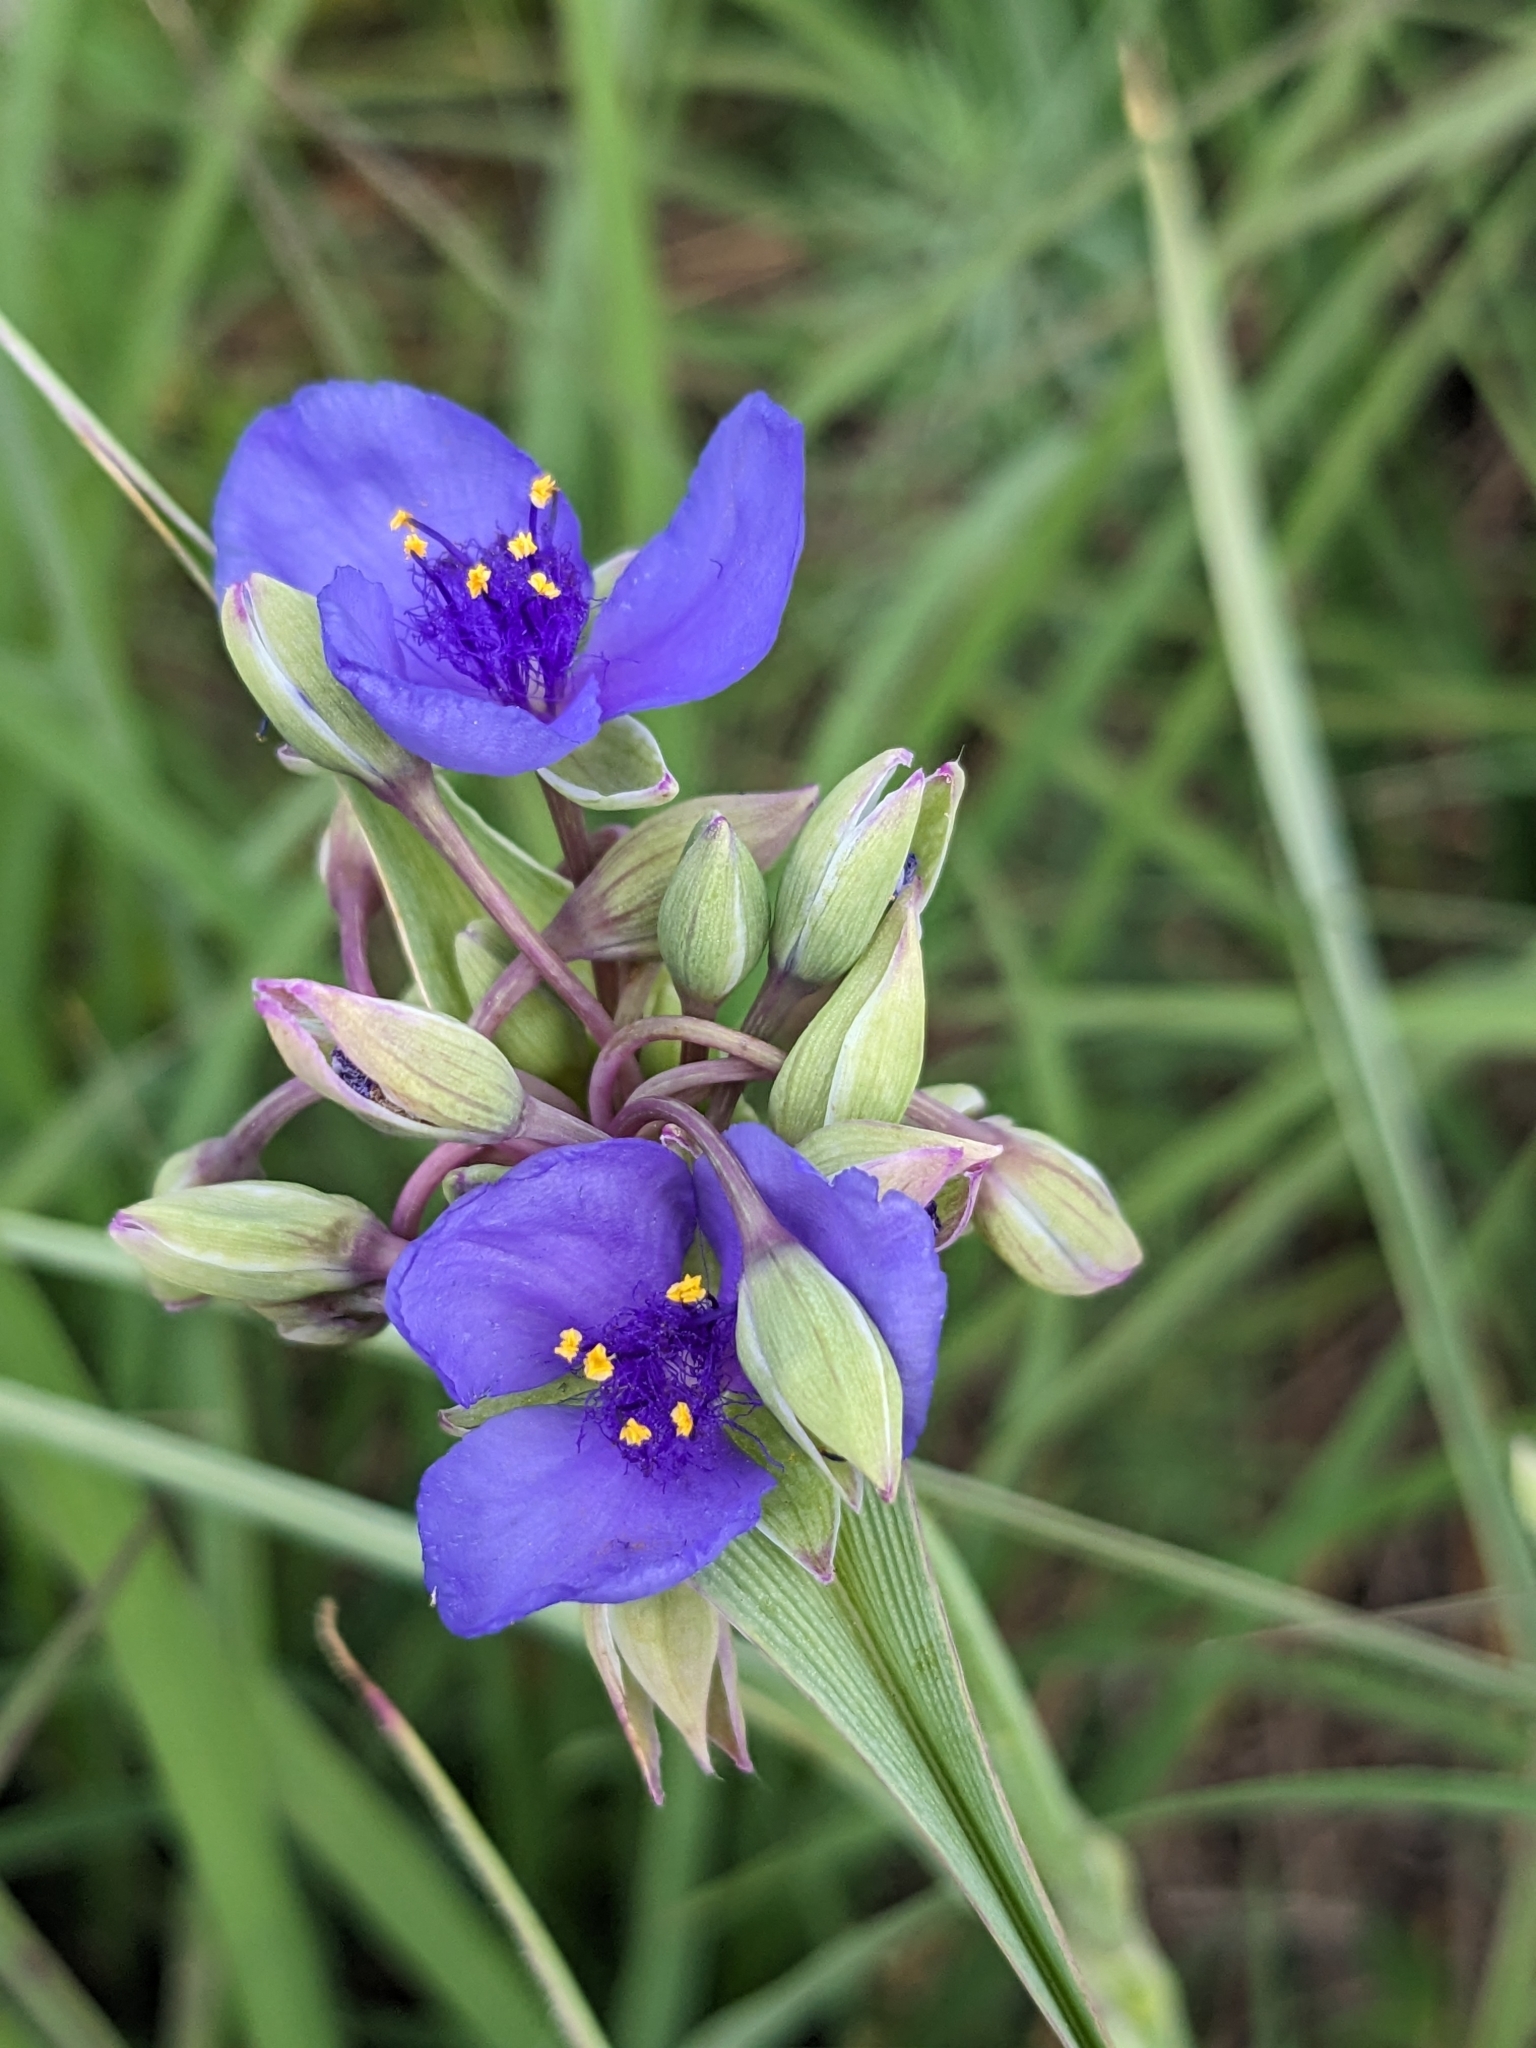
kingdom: Plantae
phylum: Tracheophyta
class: Liliopsida
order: Commelinales
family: Commelinaceae
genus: Tradescantia
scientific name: Tradescantia ohiensis
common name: Ohio spiderwort
